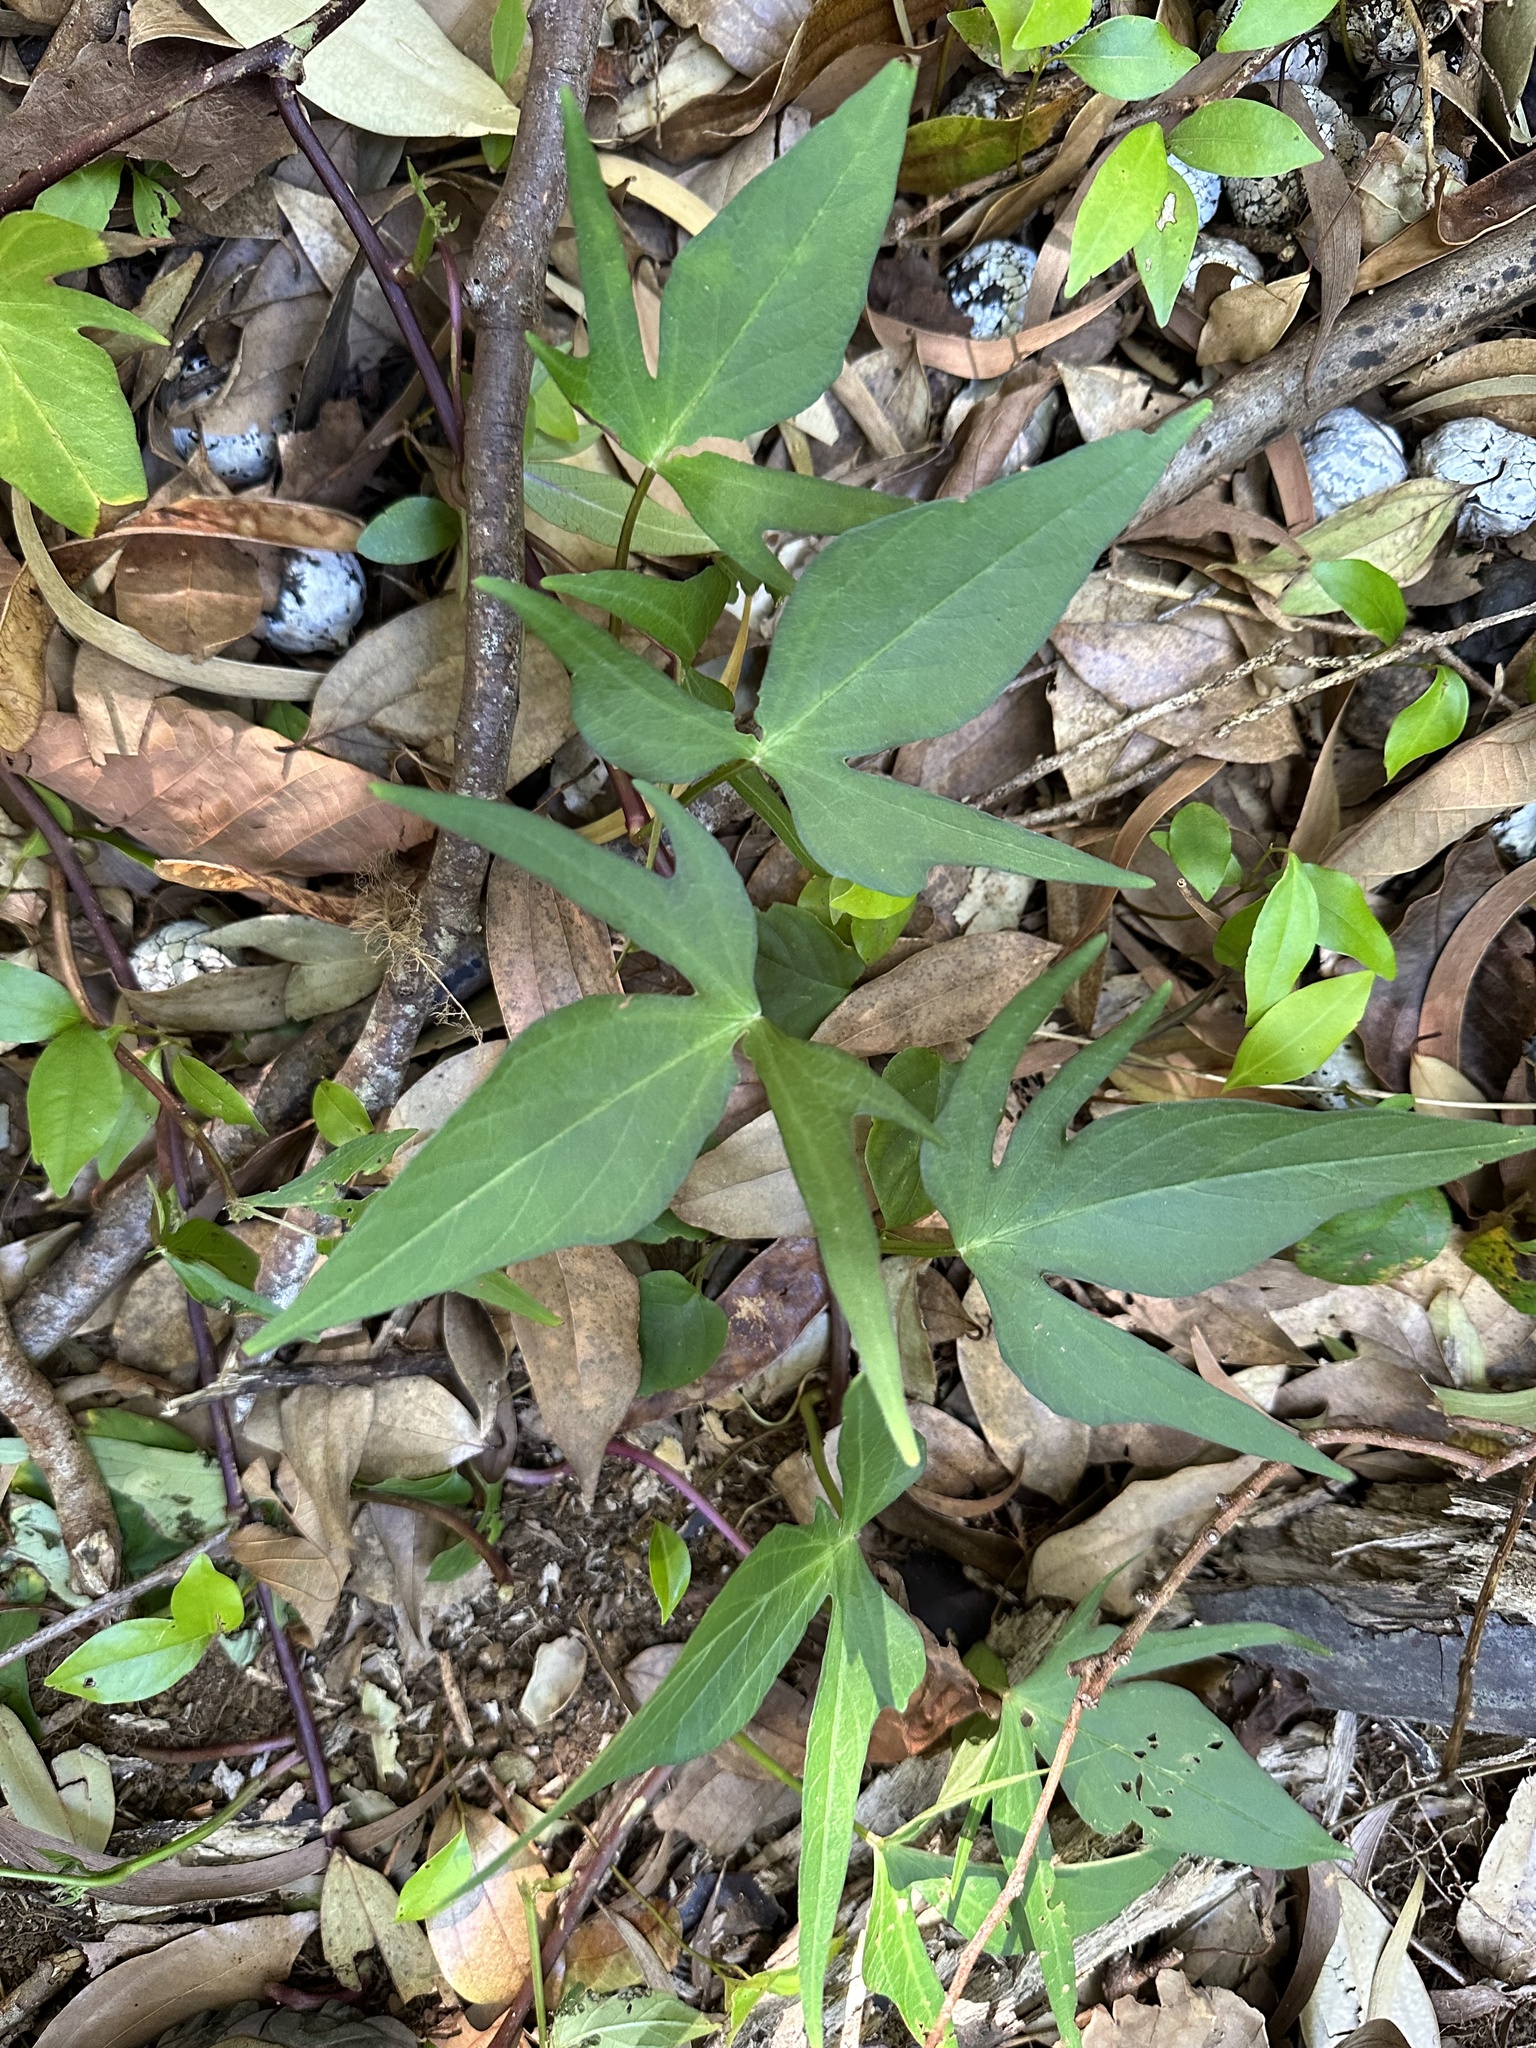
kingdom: Plantae
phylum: Tracheophyta
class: Magnoliopsida
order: Solanales
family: Convolvulaceae
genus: Ipomoea
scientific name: Ipomoea batatas
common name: Sweet-potato
